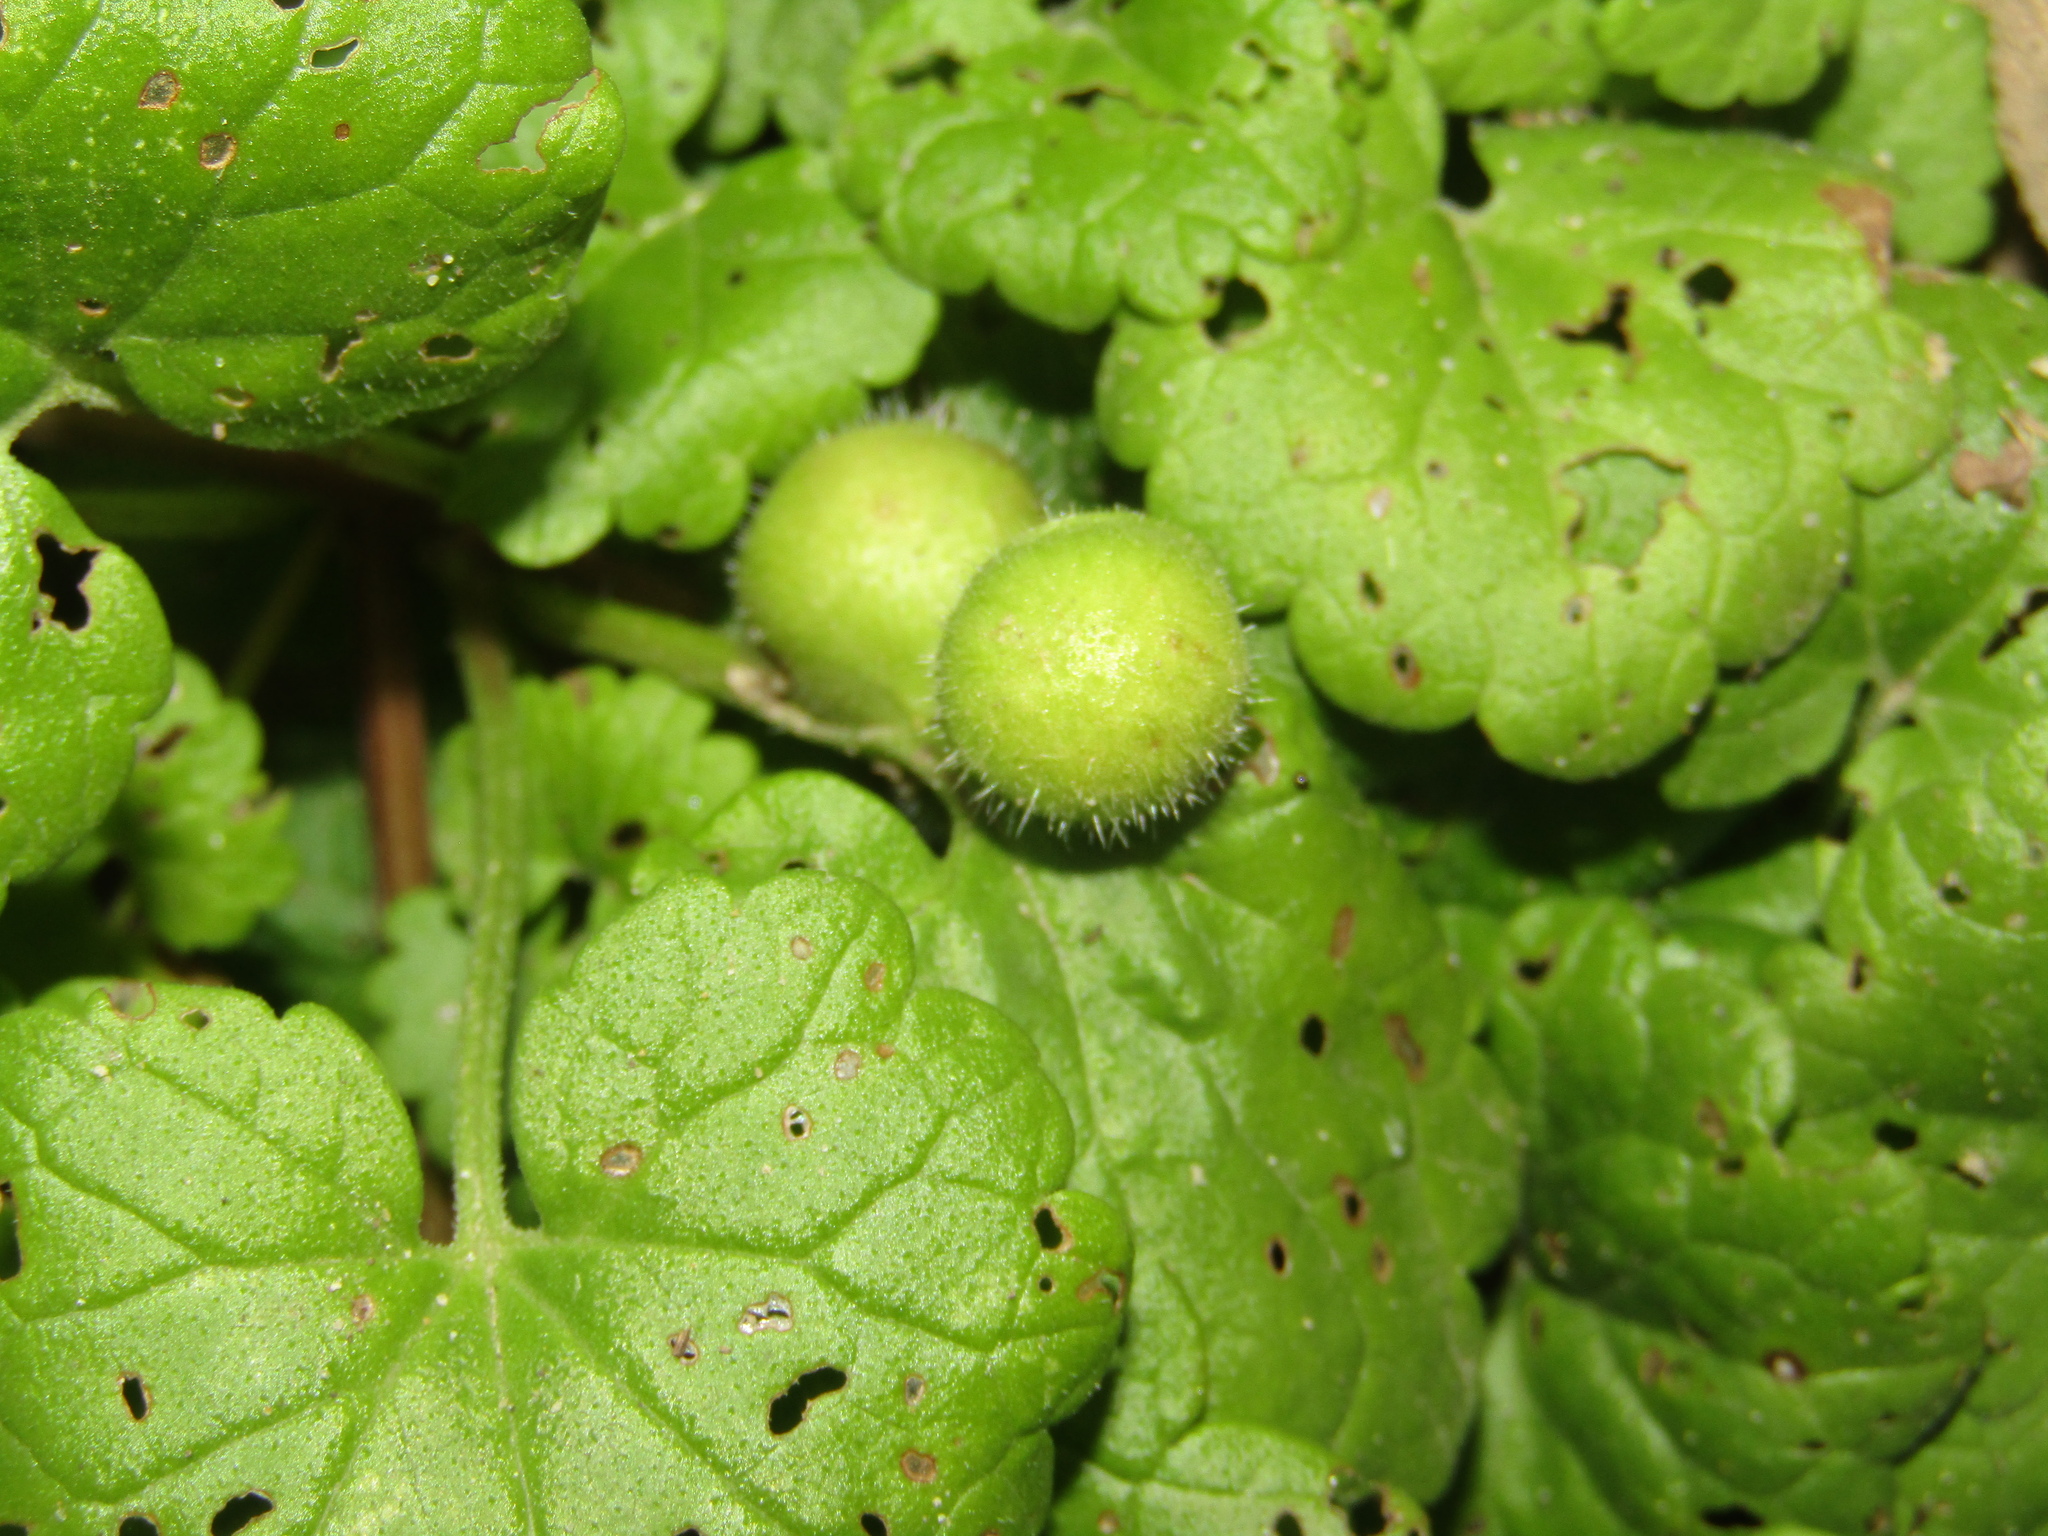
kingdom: Animalia
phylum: Arthropoda
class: Insecta
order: Hymenoptera
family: Cynipidae
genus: Liposthenes
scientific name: Liposthenes glechomae
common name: Gall wasp
